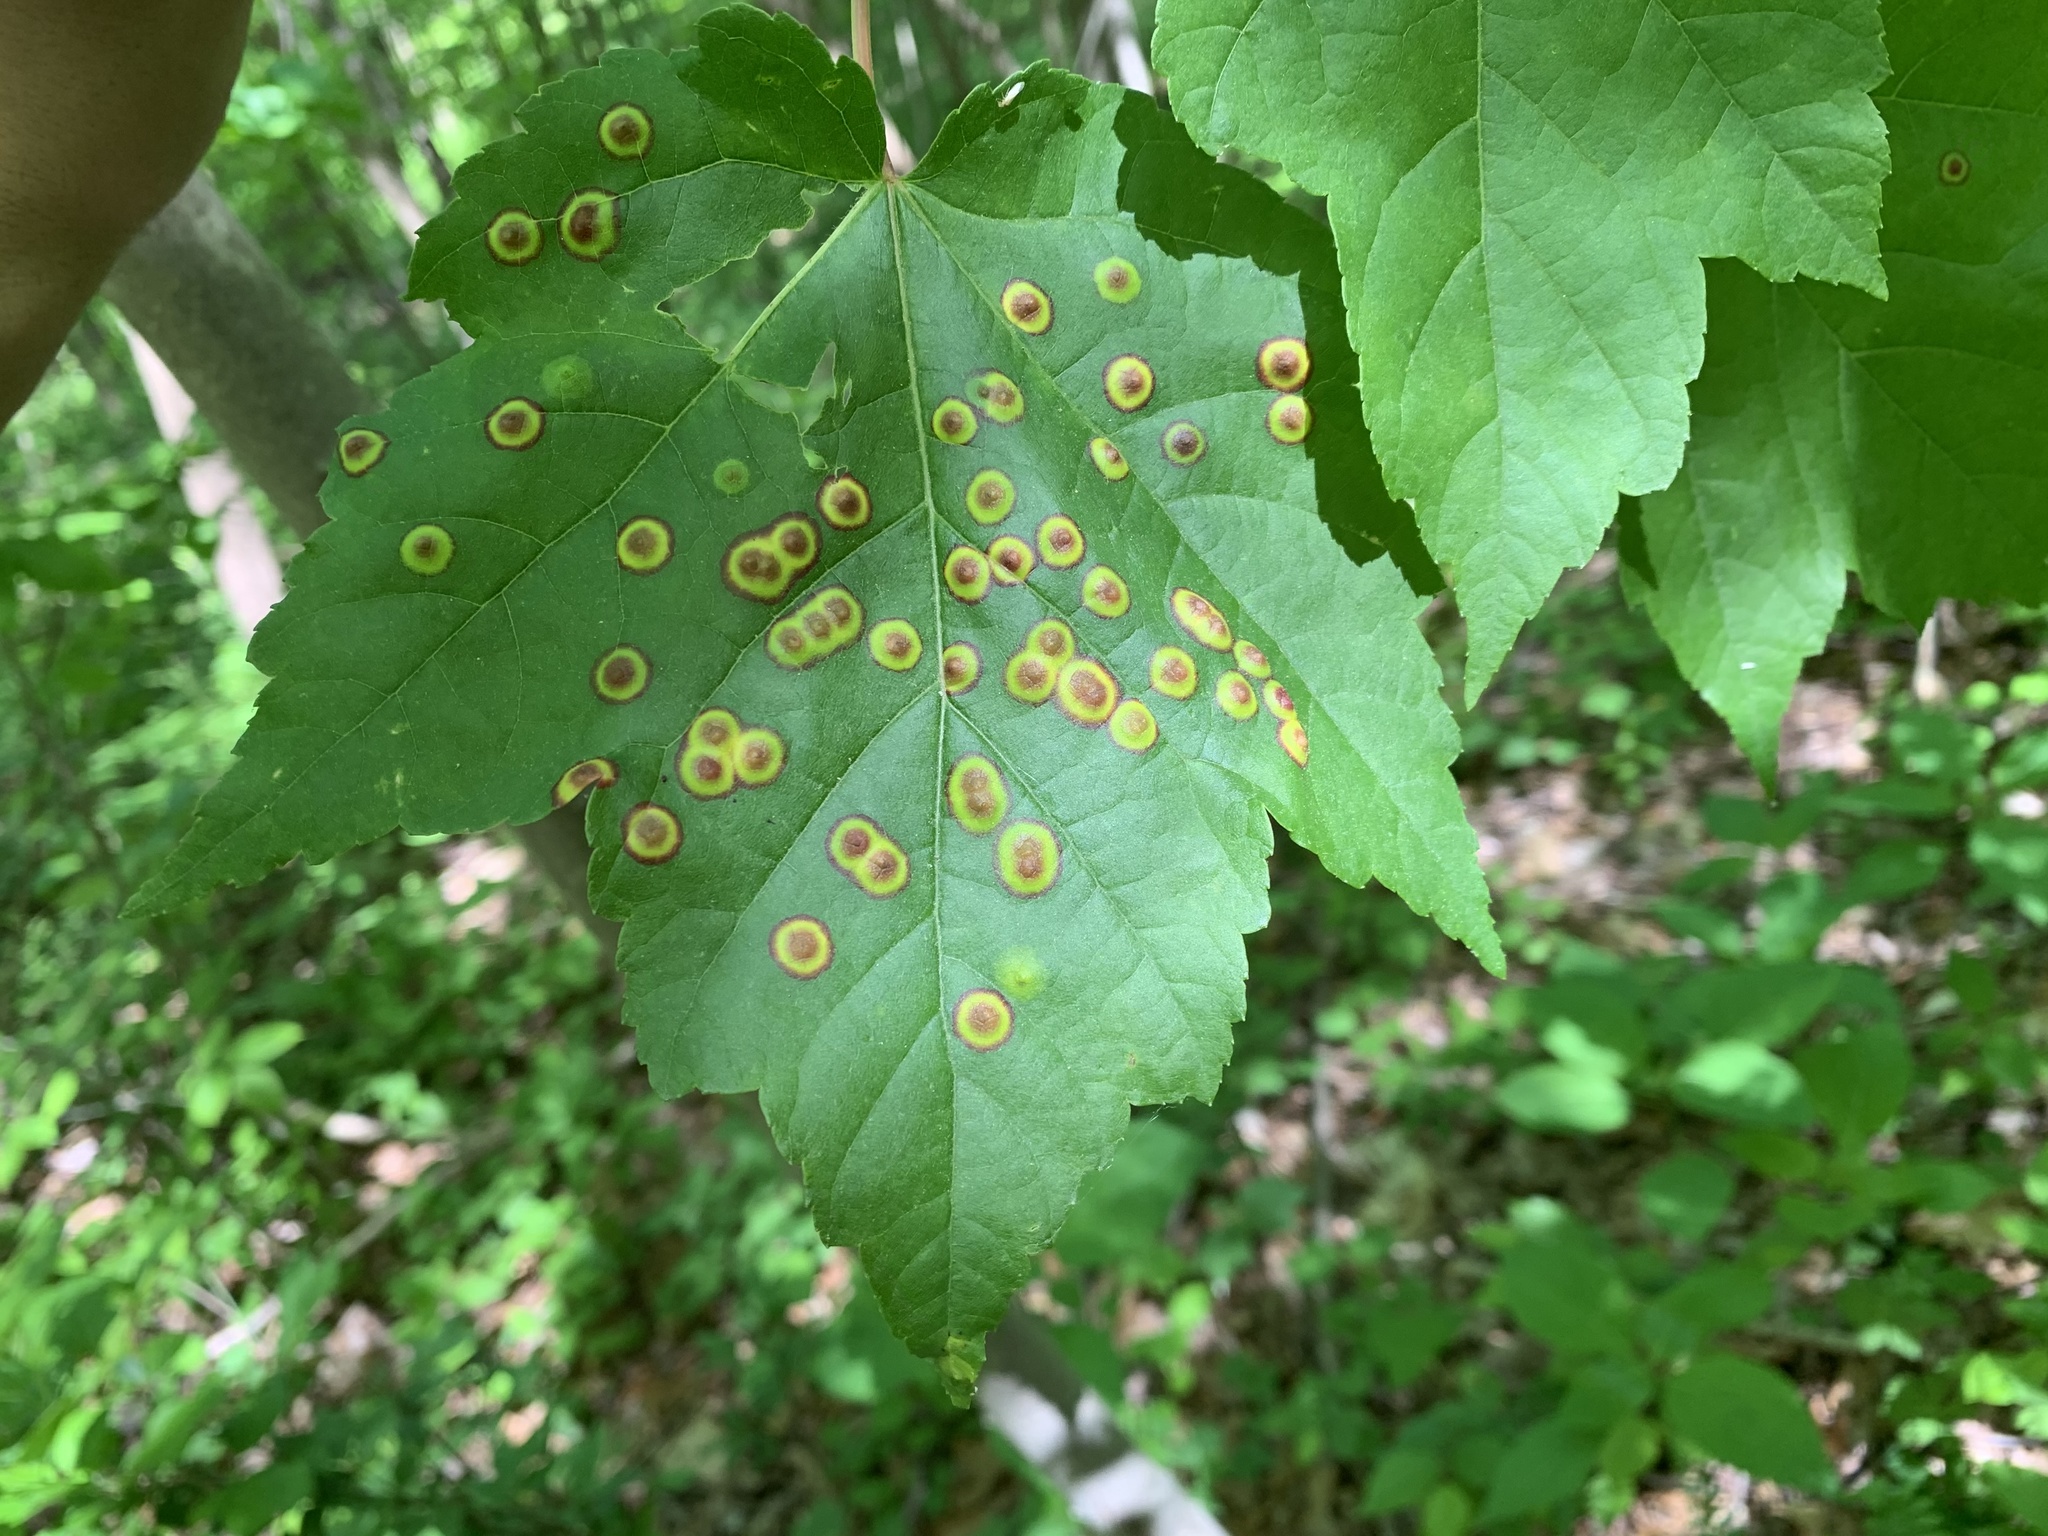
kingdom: Animalia
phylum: Arthropoda
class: Insecta
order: Diptera
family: Cecidomyiidae
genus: Acericecis
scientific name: Acericecis ocellaris
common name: Ocellate gall midge
